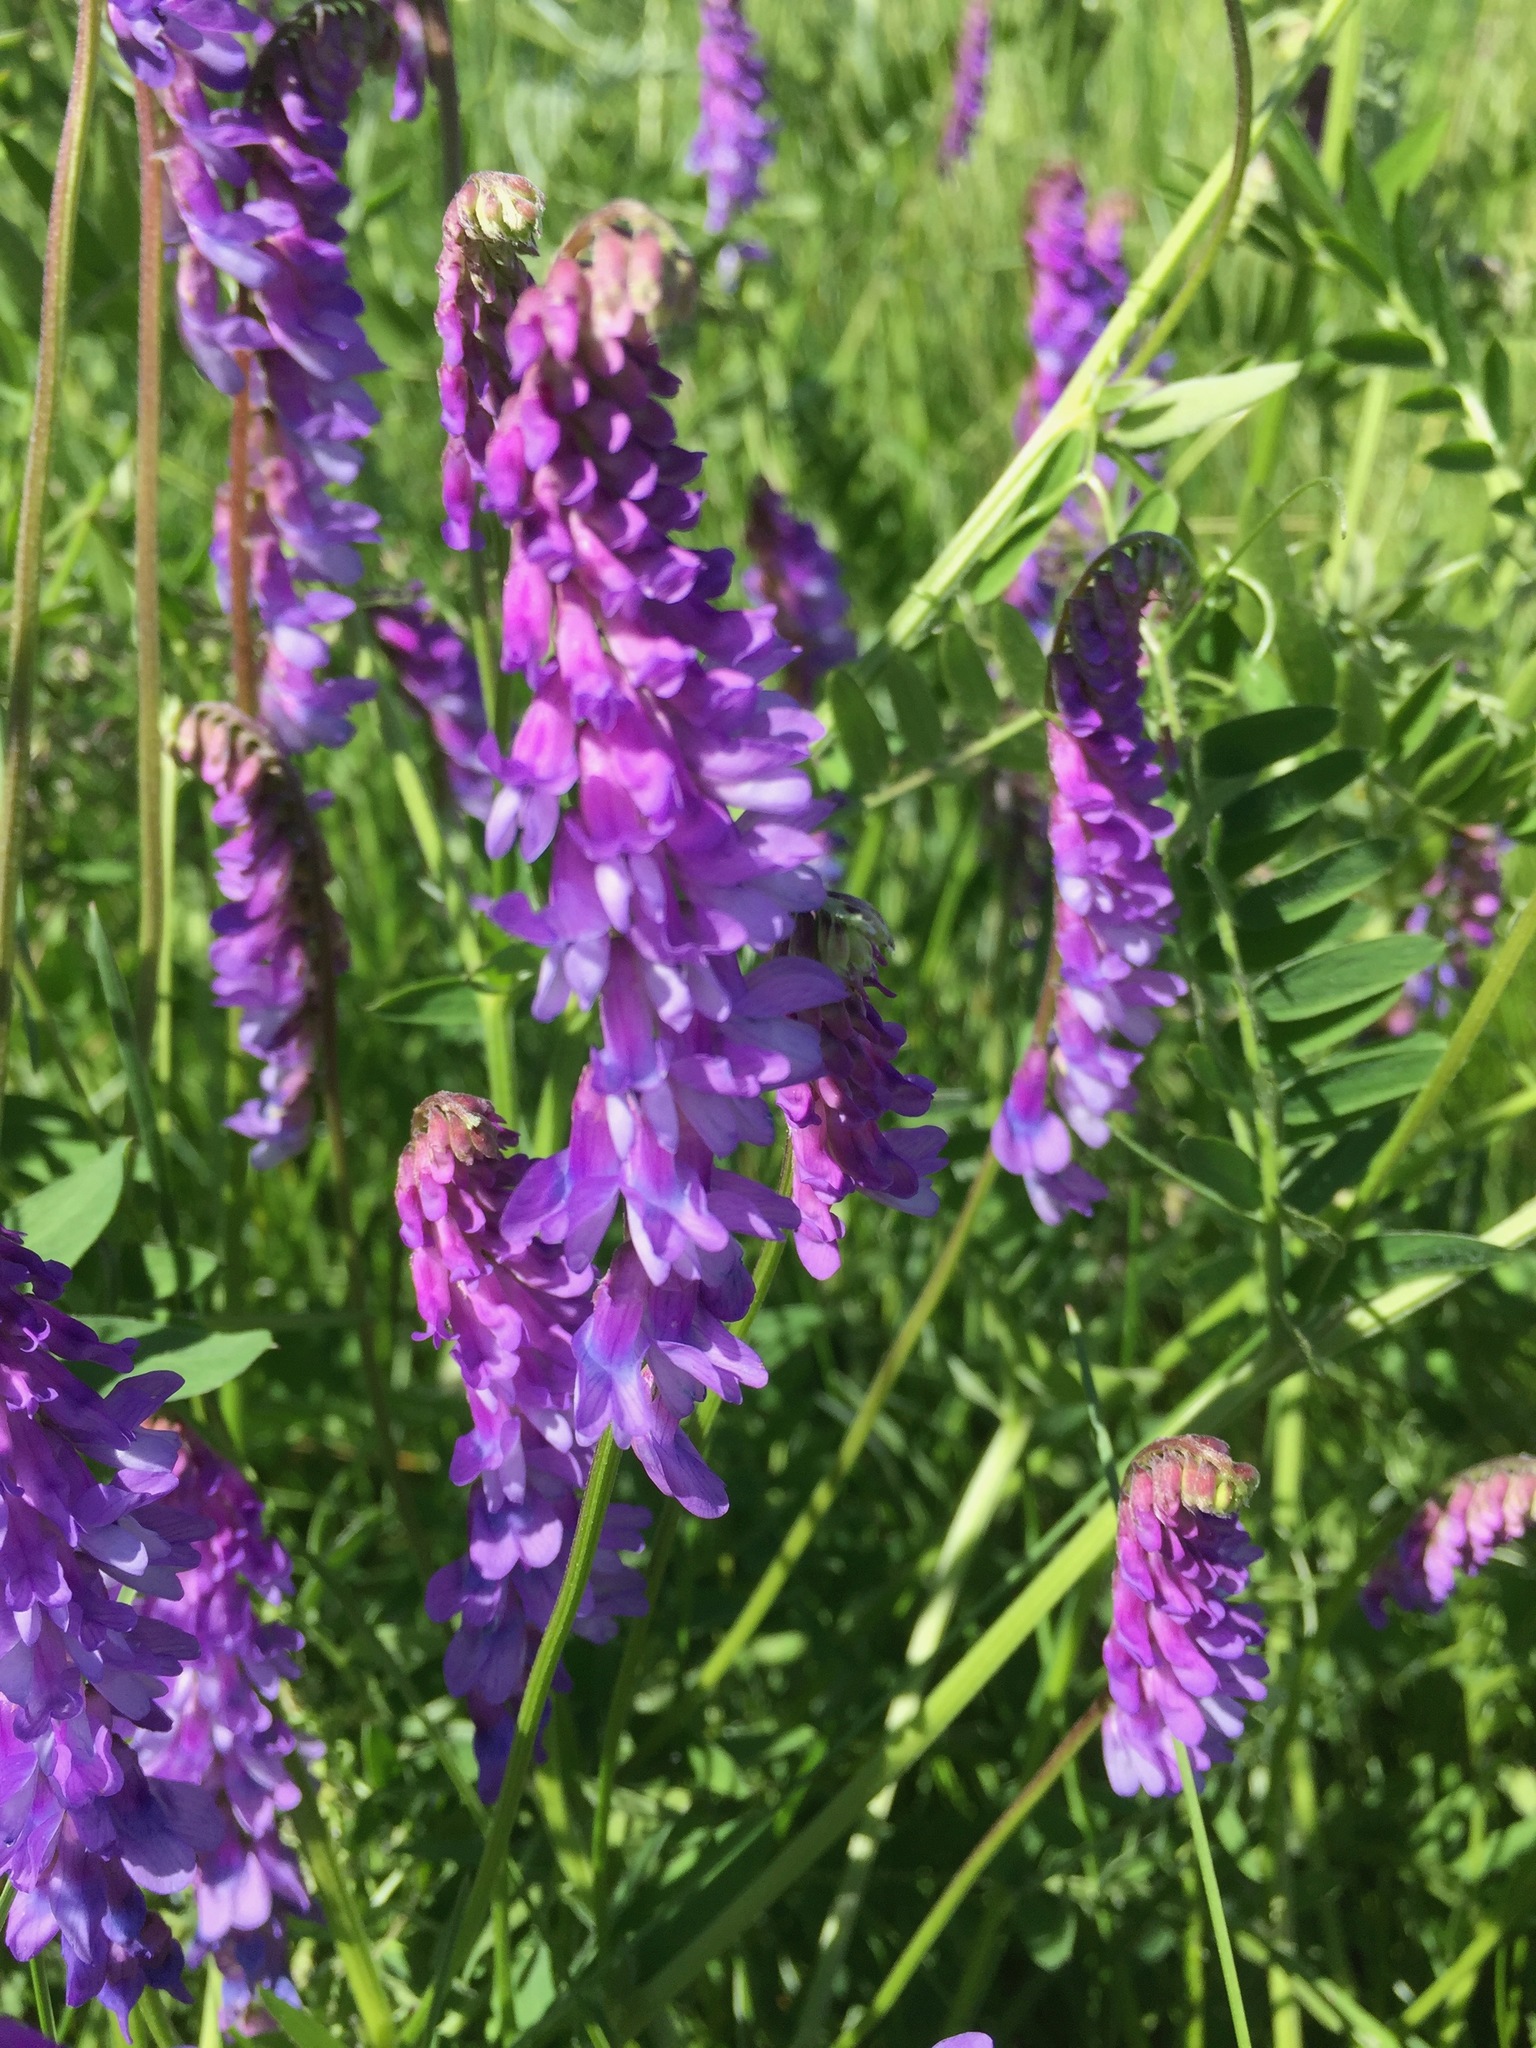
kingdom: Plantae
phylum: Tracheophyta
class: Magnoliopsida
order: Fabales
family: Fabaceae
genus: Vicia
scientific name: Vicia cracca
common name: Bird vetch
